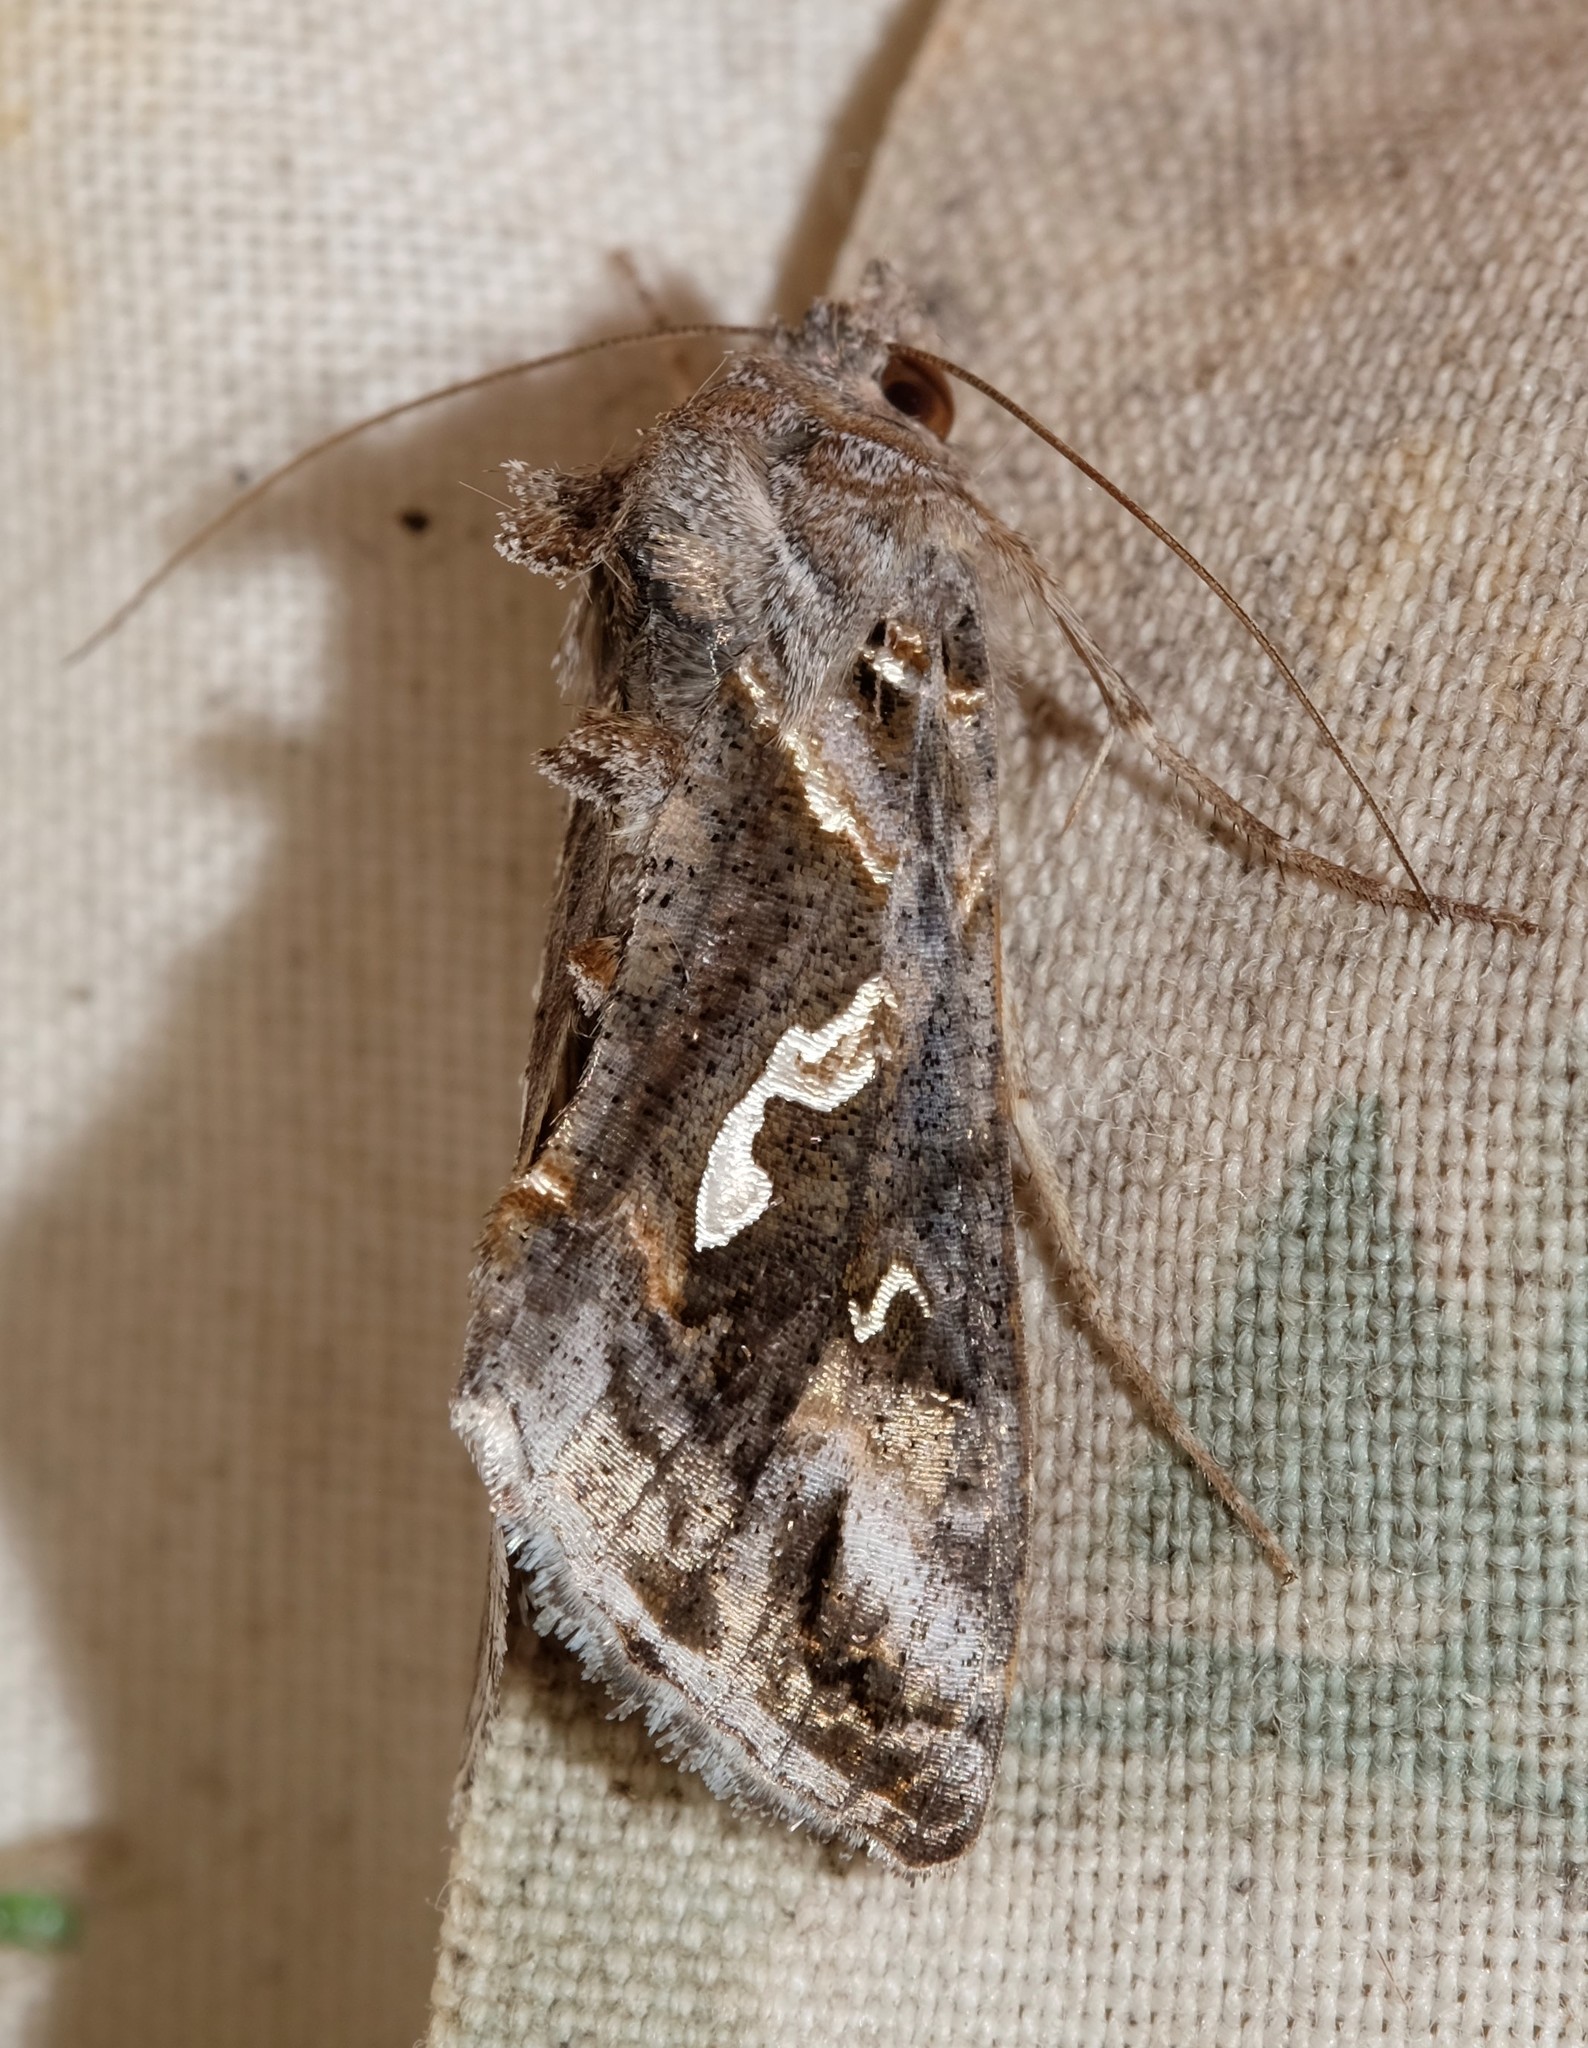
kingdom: Animalia
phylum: Arthropoda
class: Insecta
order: Lepidoptera
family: Noctuidae
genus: Chrysodeixis
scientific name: Chrysodeixis argentifera
